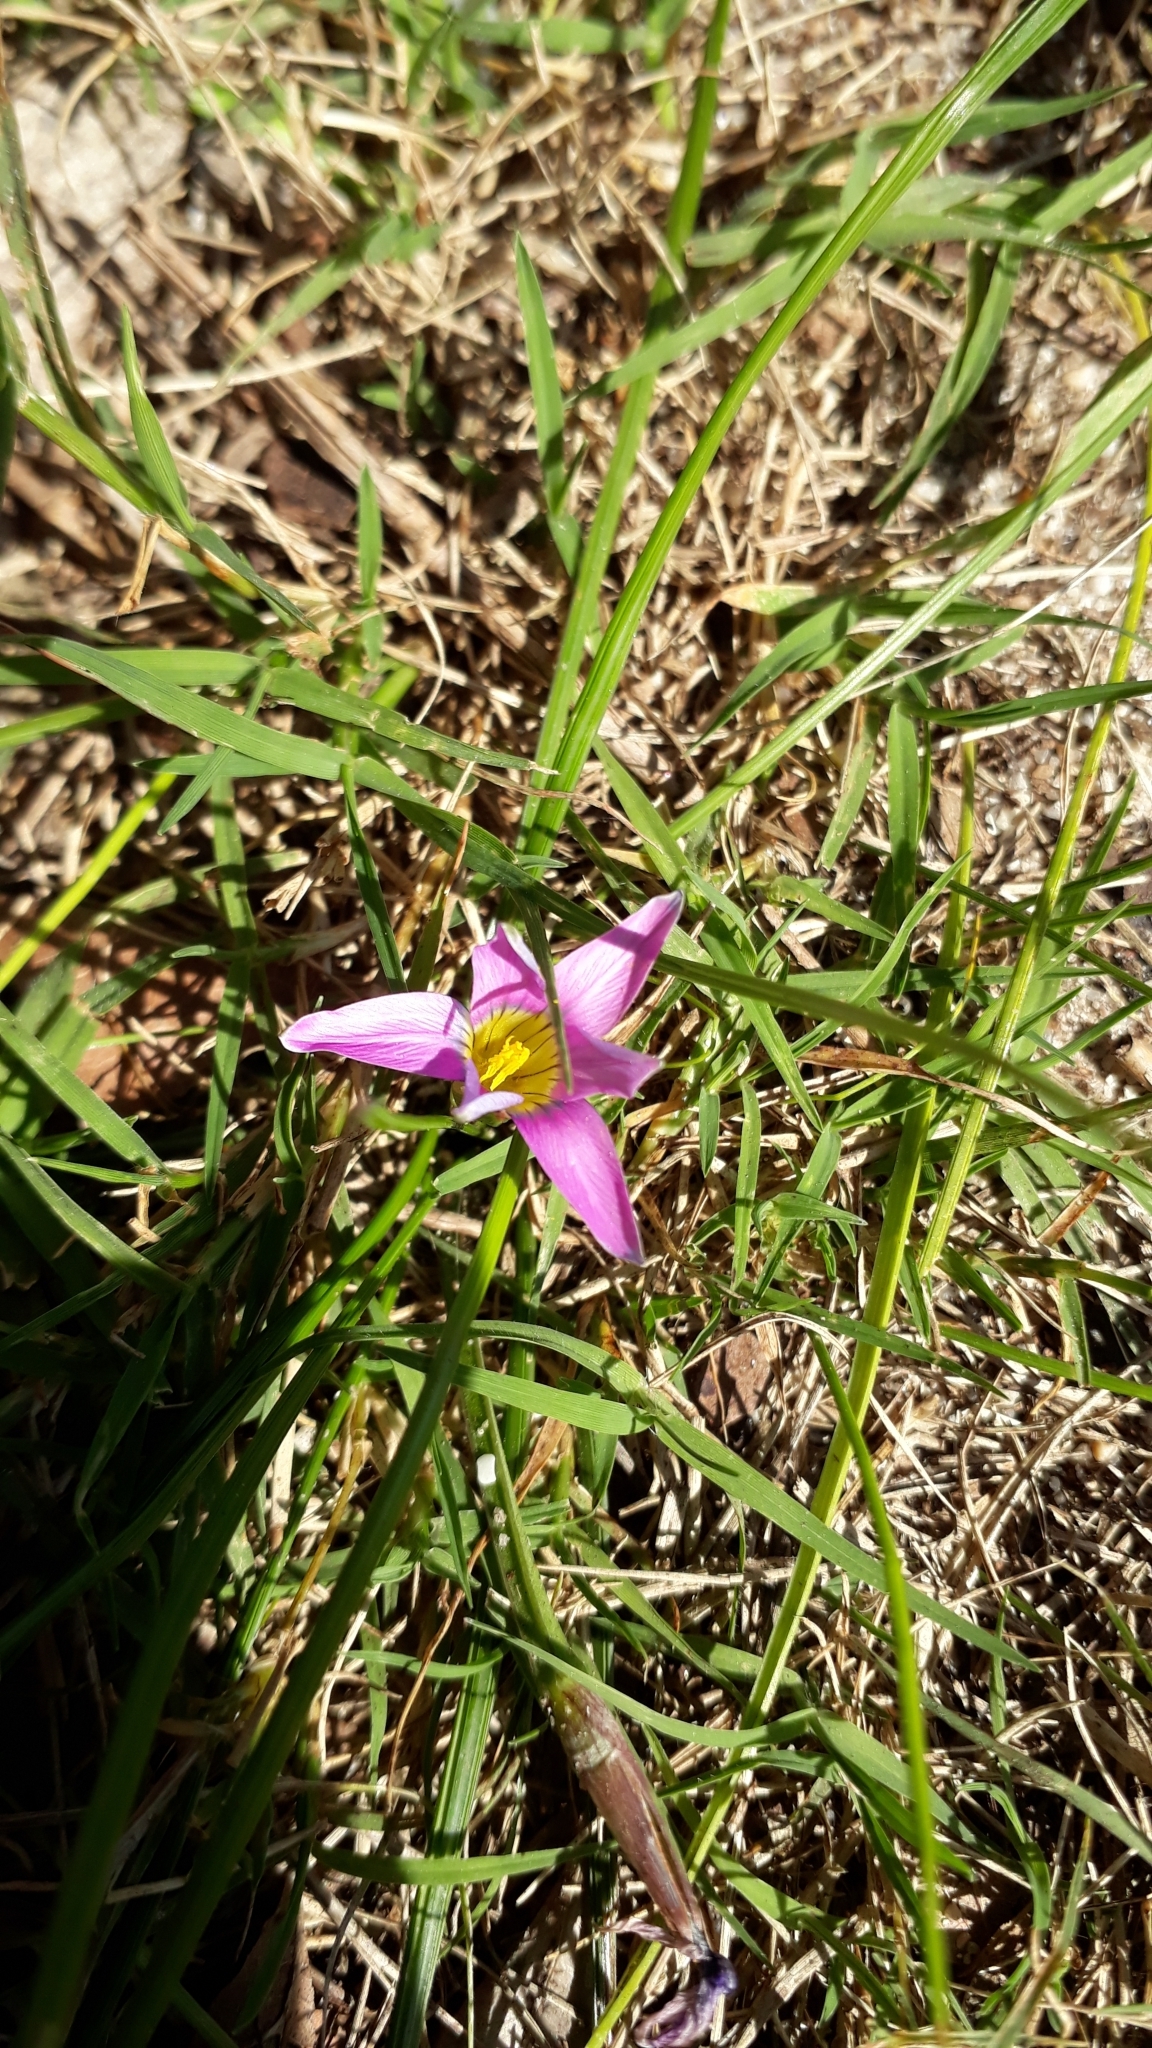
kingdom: Plantae
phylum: Tracheophyta
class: Liliopsida
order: Asparagales
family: Iridaceae
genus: Romulea
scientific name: Romulea rosea
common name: Oniongrass
